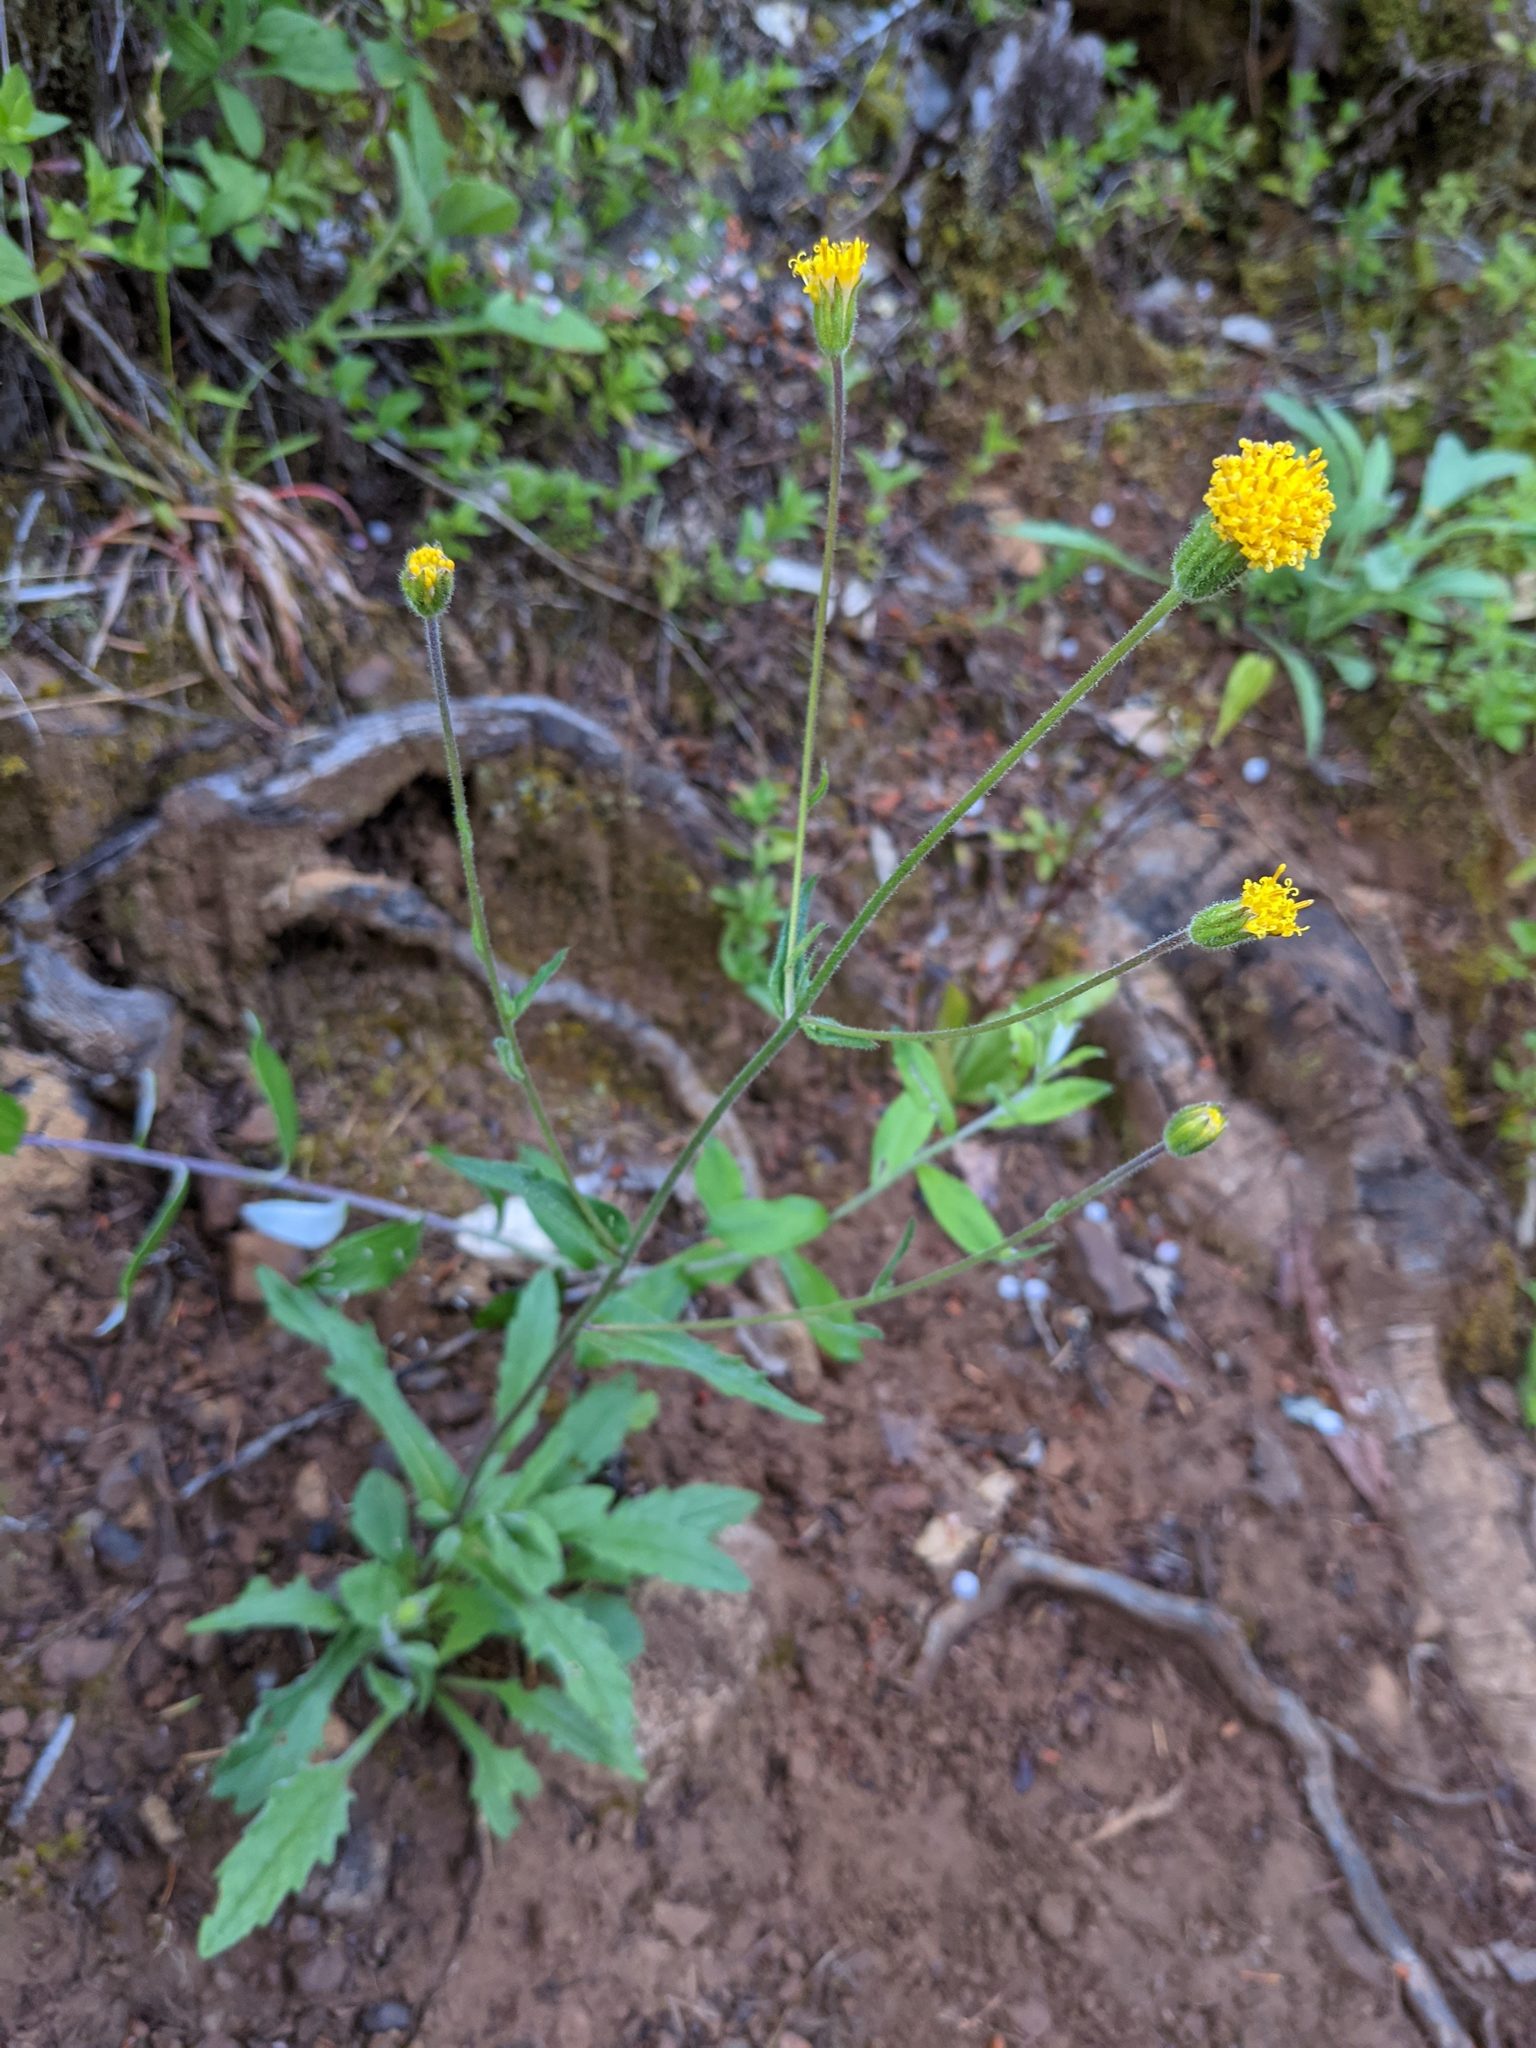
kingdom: Plantae
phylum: Tracheophyta
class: Magnoliopsida
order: Asterales
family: Asteraceae
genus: Arnica
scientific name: Arnica spathulata
